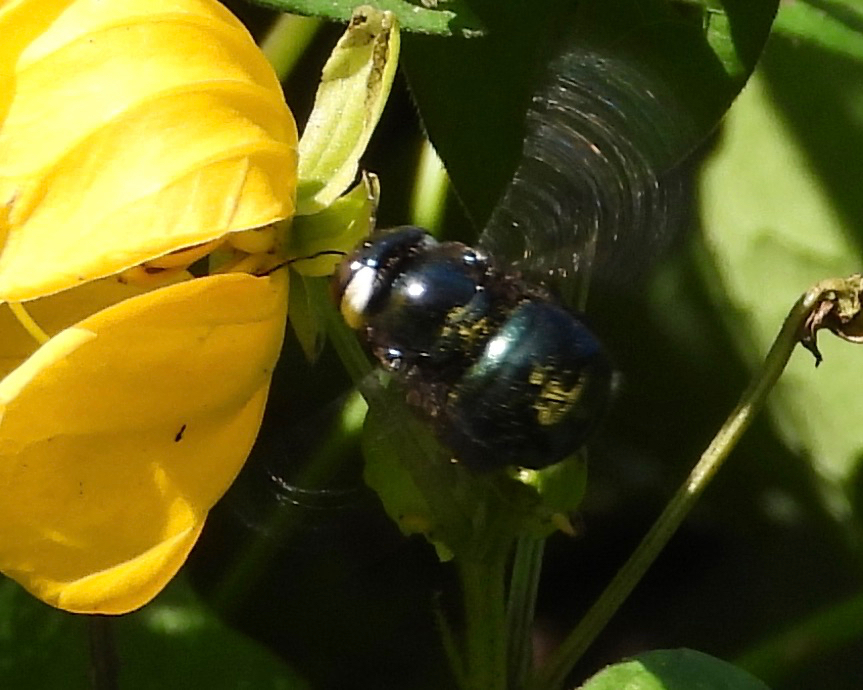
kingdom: Animalia
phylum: Arthropoda
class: Insecta
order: Hymenoptera
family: Apidae
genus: Xylocopa
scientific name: Xylocopa muscaria
